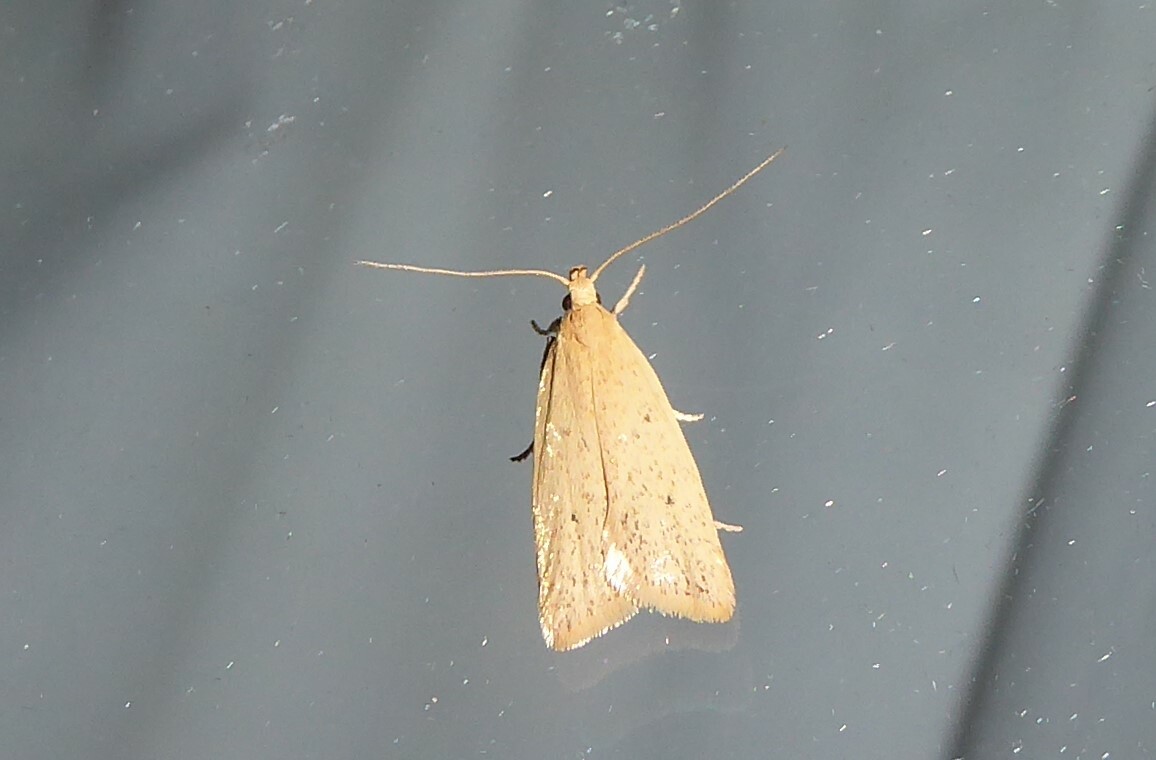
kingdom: Animalia
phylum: Arthropoda
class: Insecta
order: Lepidoptera
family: Oecophoridae
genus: Gymnobathra
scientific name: Gymnobathra sarcoxantha
